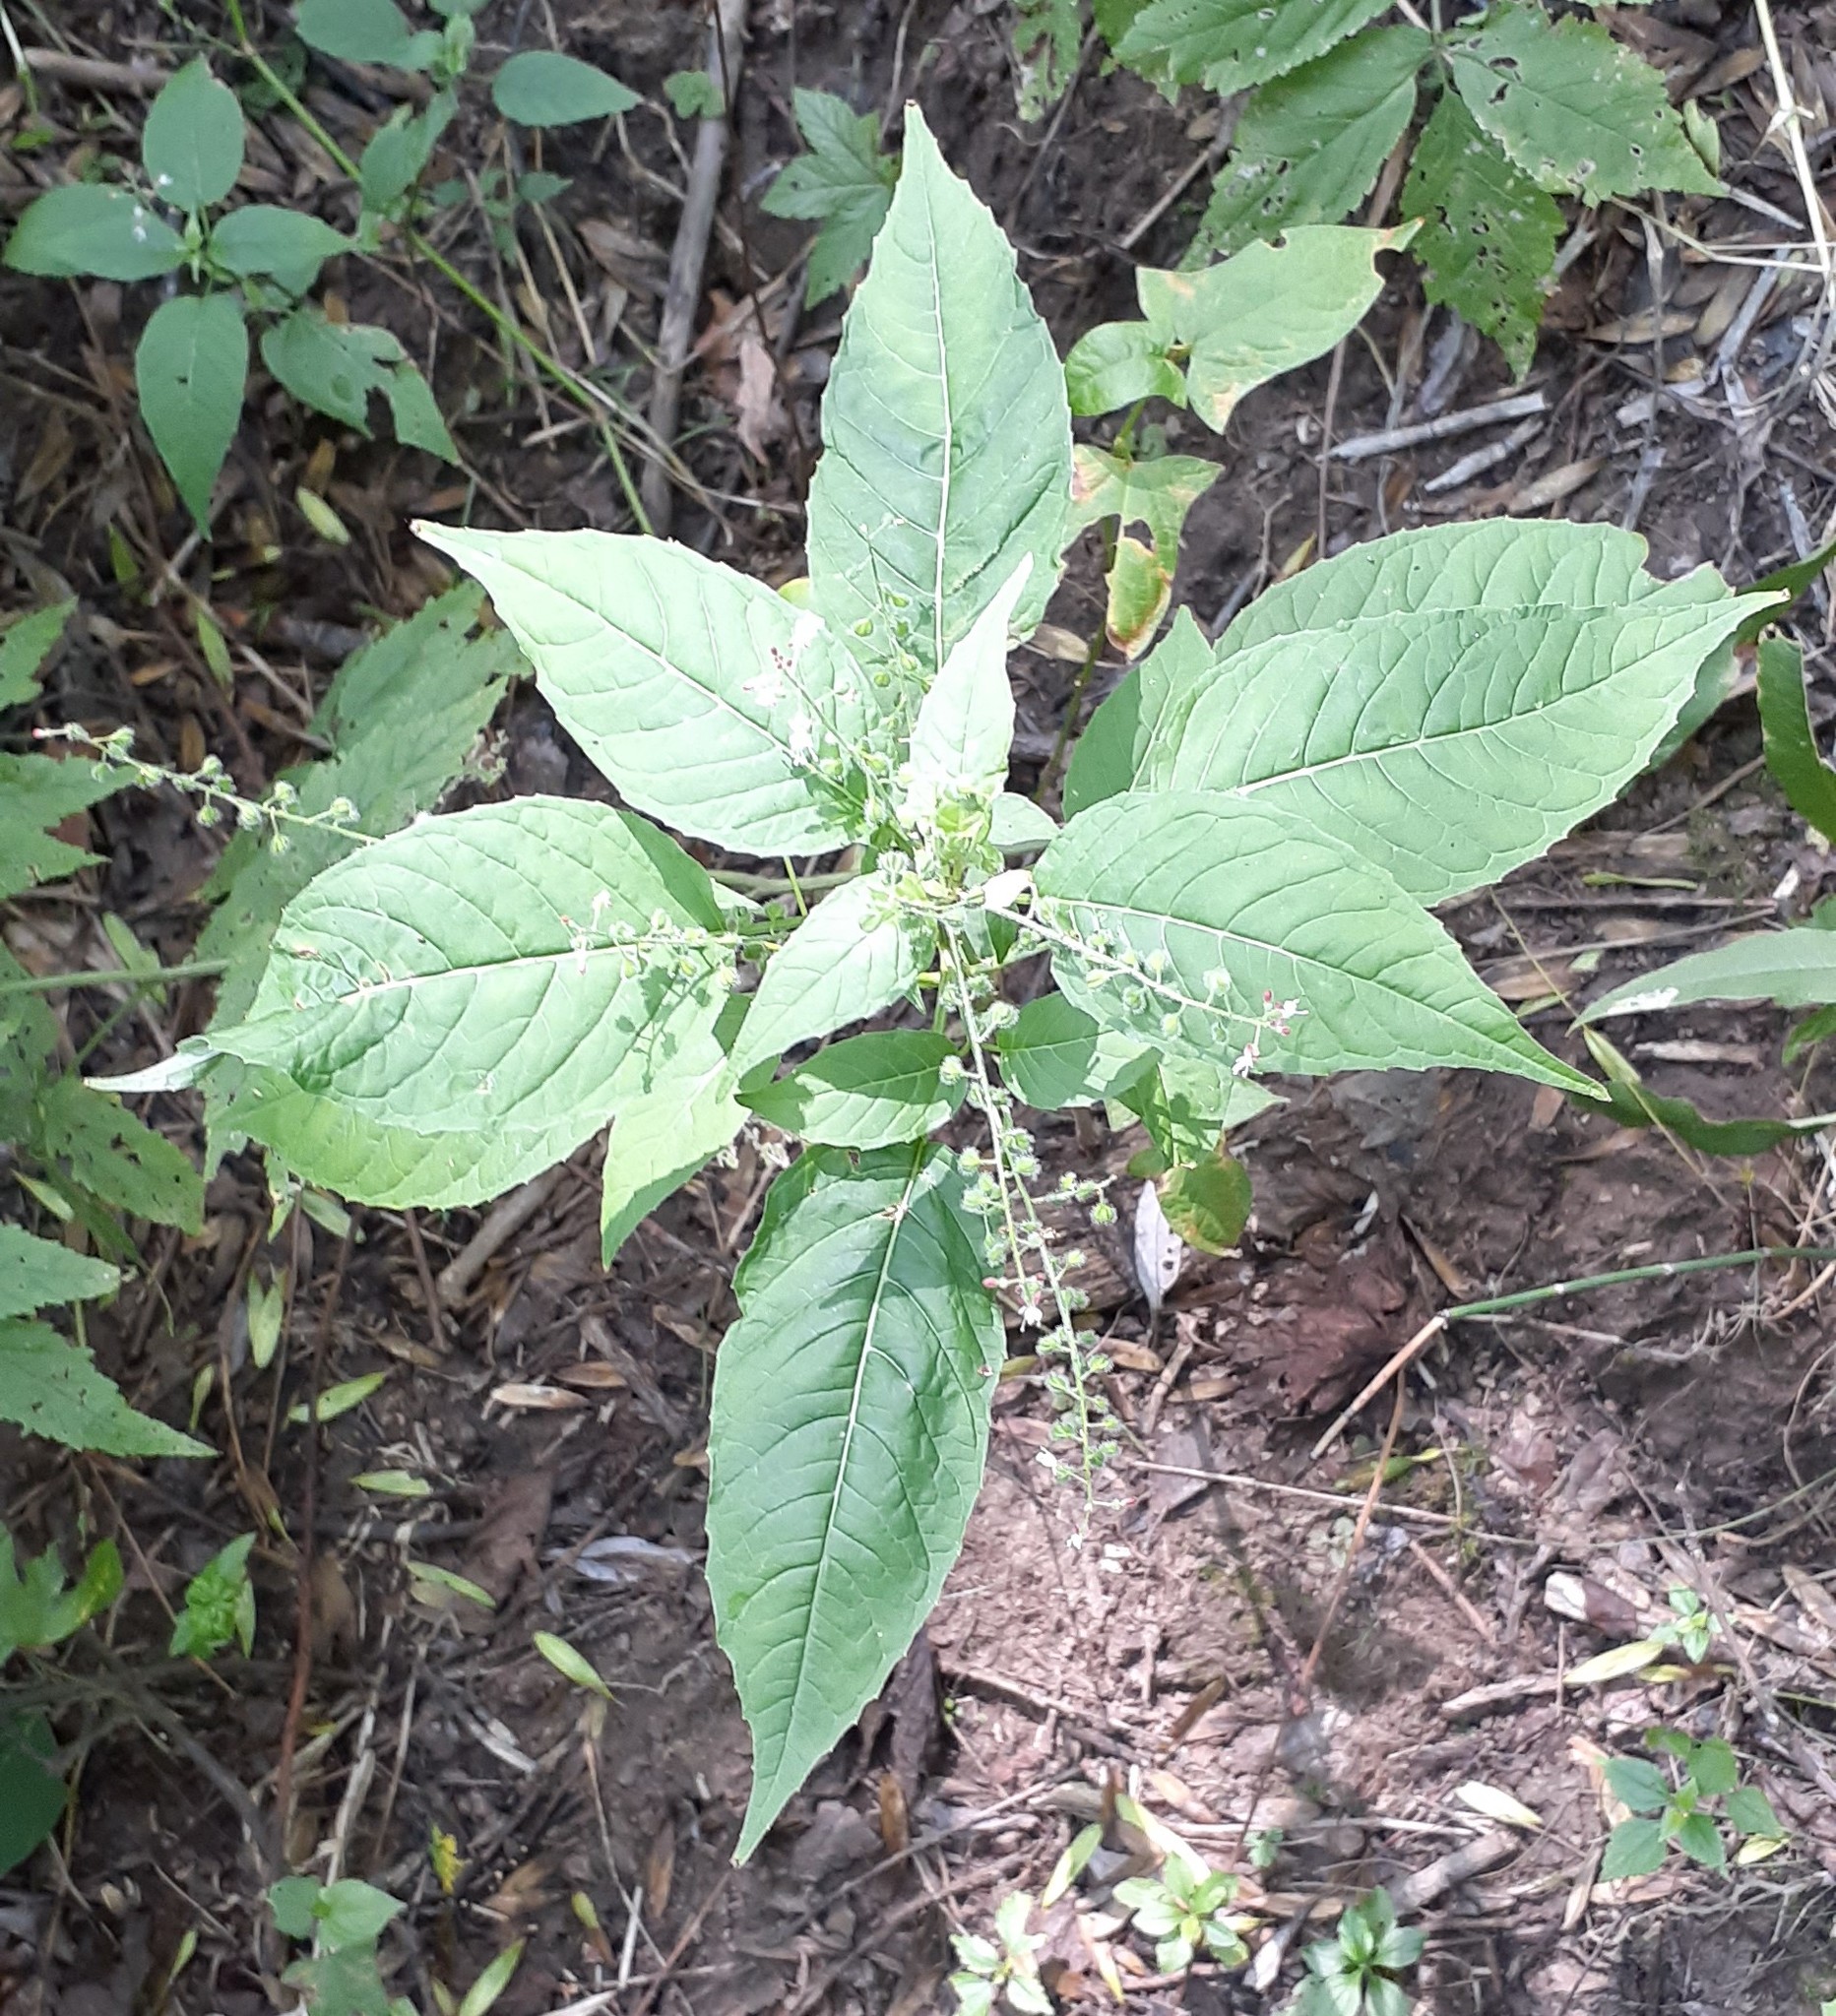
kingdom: Plantae
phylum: Tracheophyta
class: Magnoliopsida
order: Myrtales
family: Onagraceae
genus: Circaea
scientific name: Circaea canadensis
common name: Broad-leaved enchanter's nightshade
